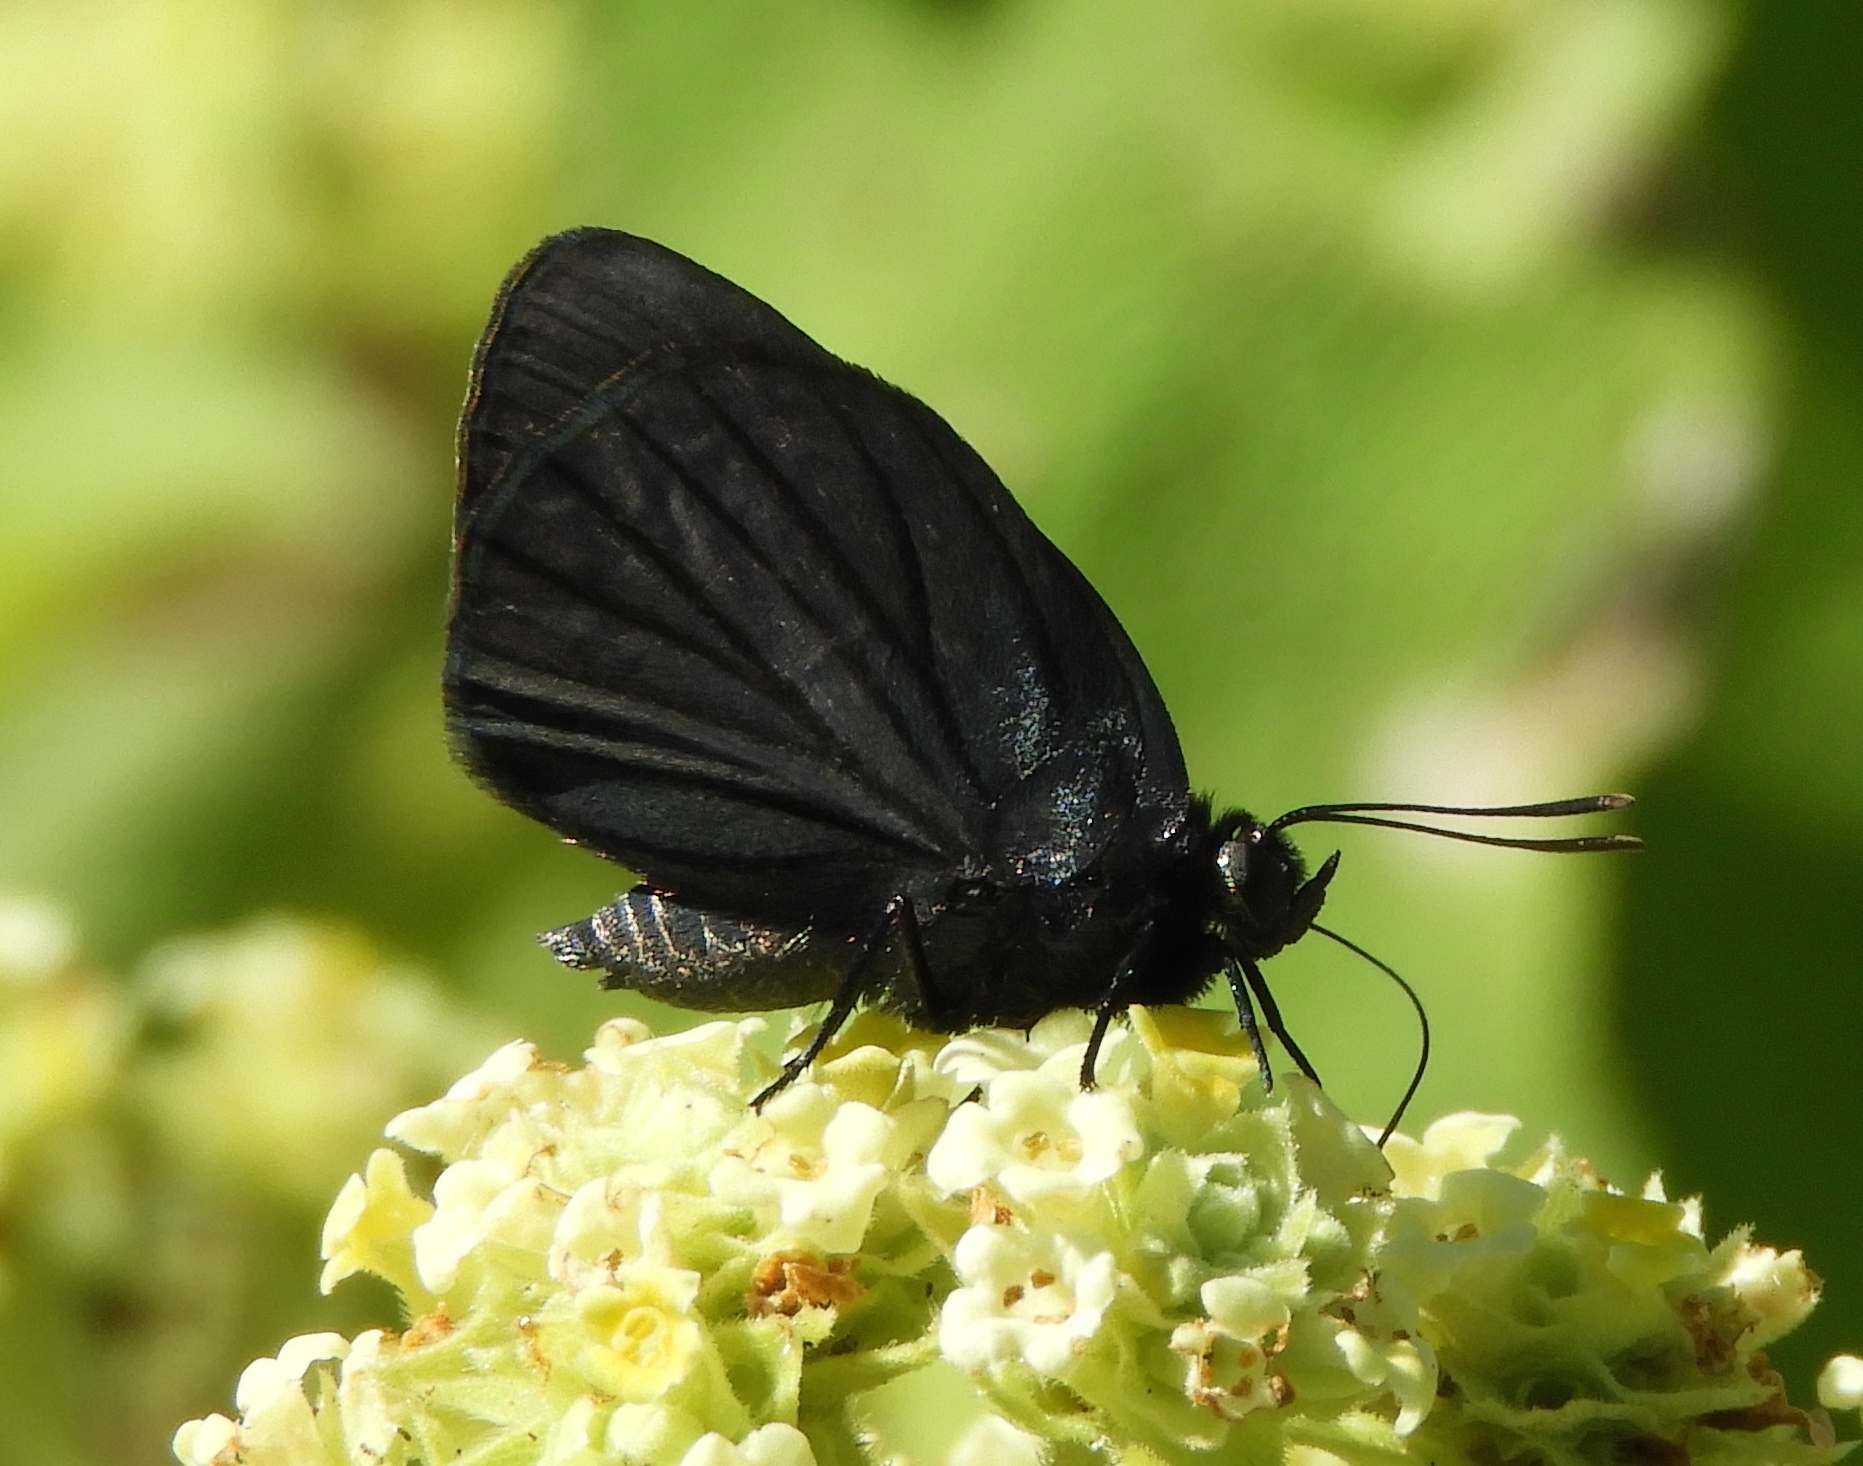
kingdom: Animalia
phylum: Arthropoda
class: Insecta
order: Lepidoptera
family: Lycaenidae
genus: Ipidecla
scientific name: Ipidecla miadora
